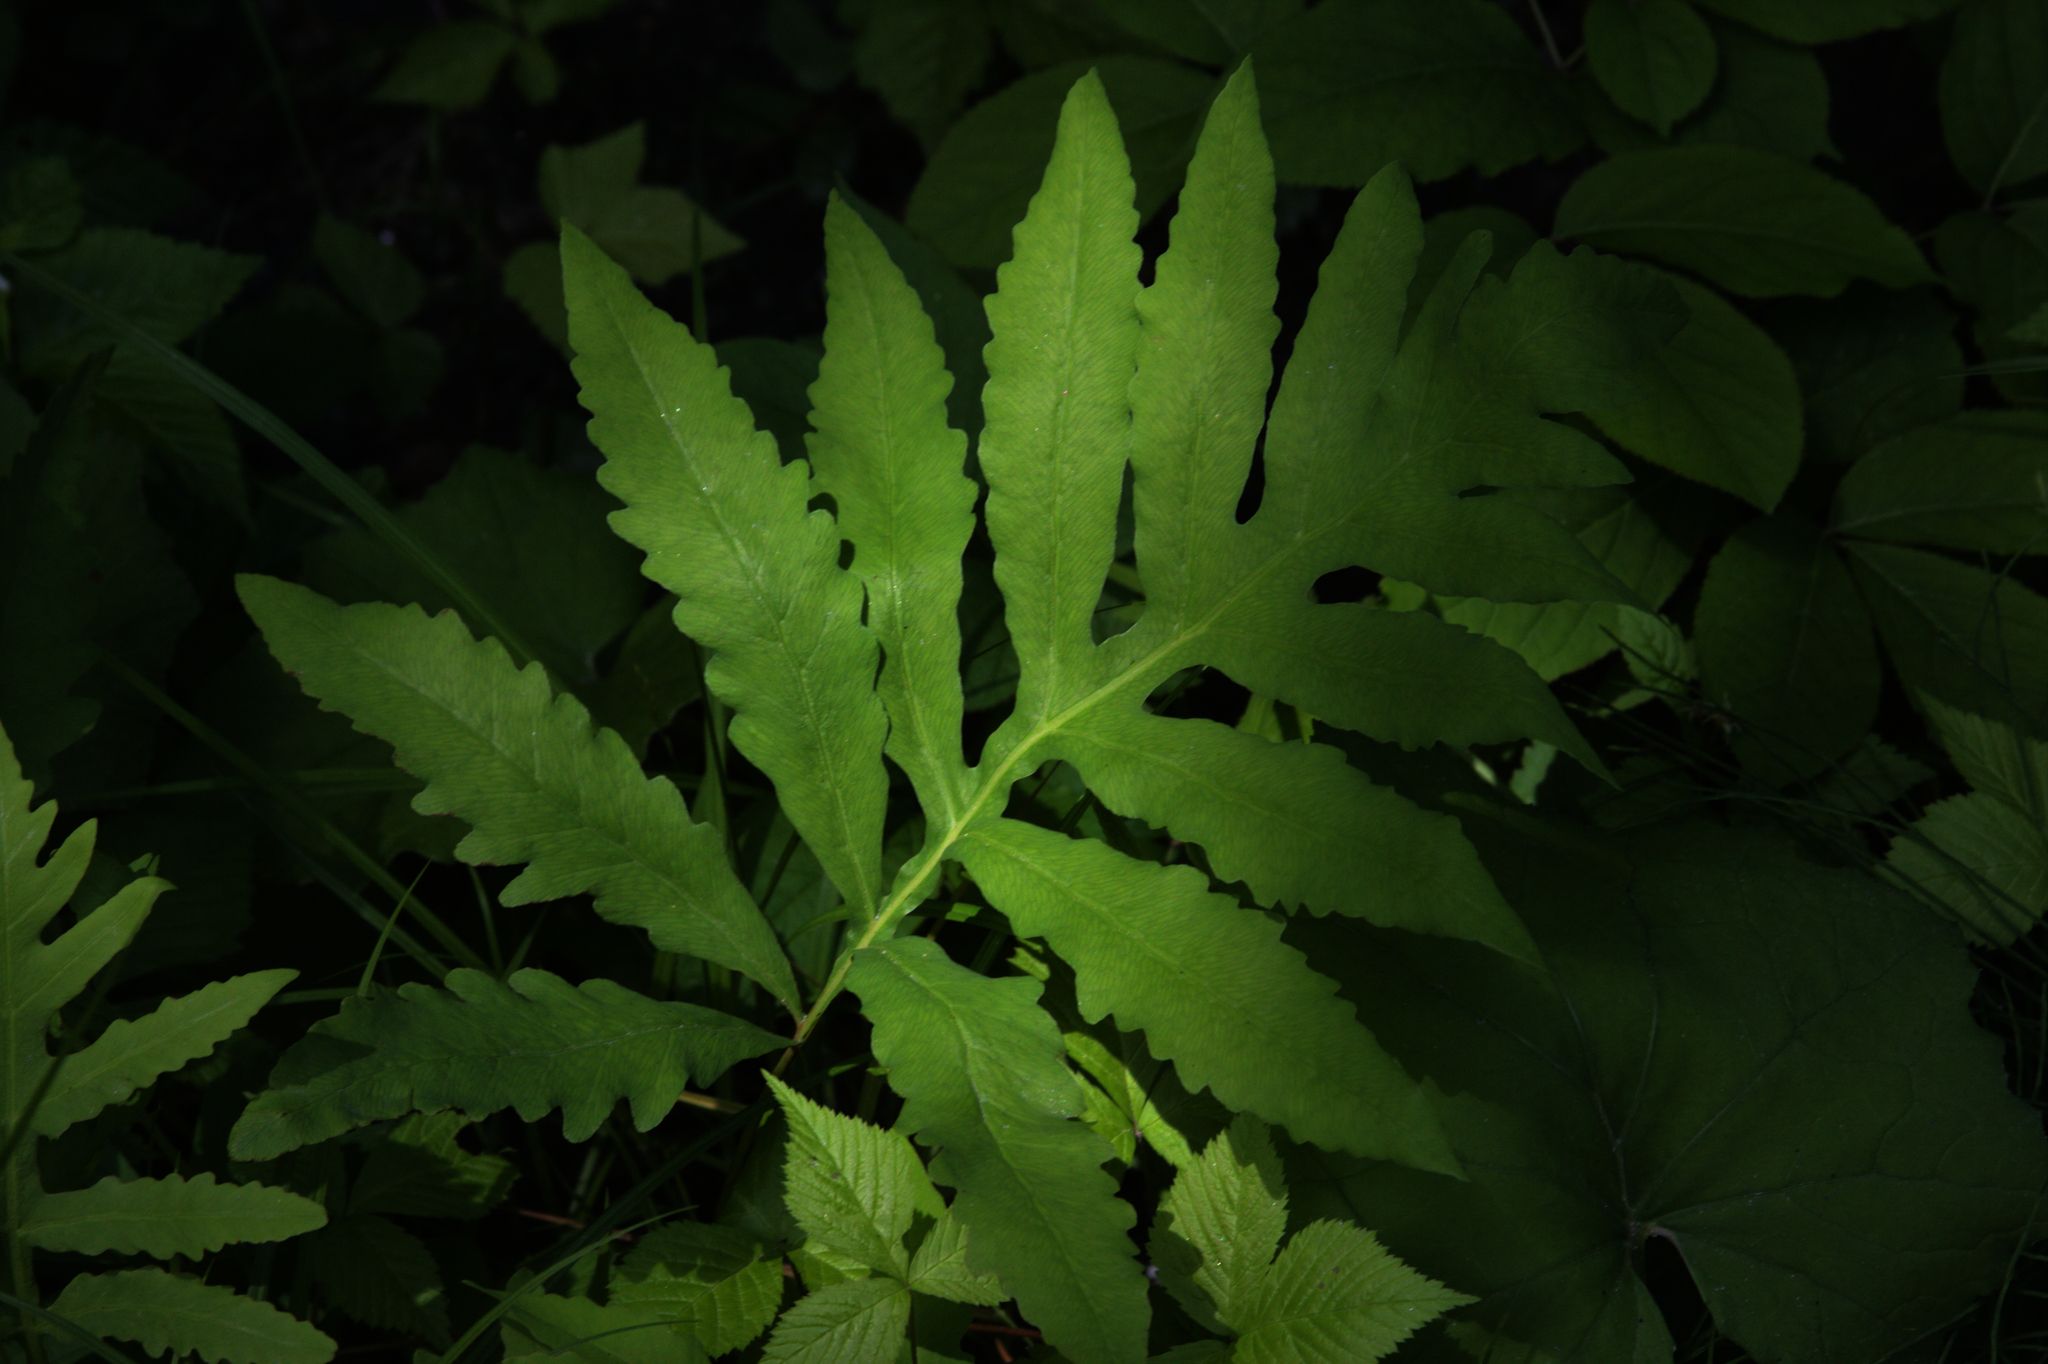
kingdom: Plantae
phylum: Tracheophyta
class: Polypodiopsida
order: Polypodiales
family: Onocleaceae
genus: Onoclea
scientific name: Onoclea sensibilis
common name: Sensitive fern
